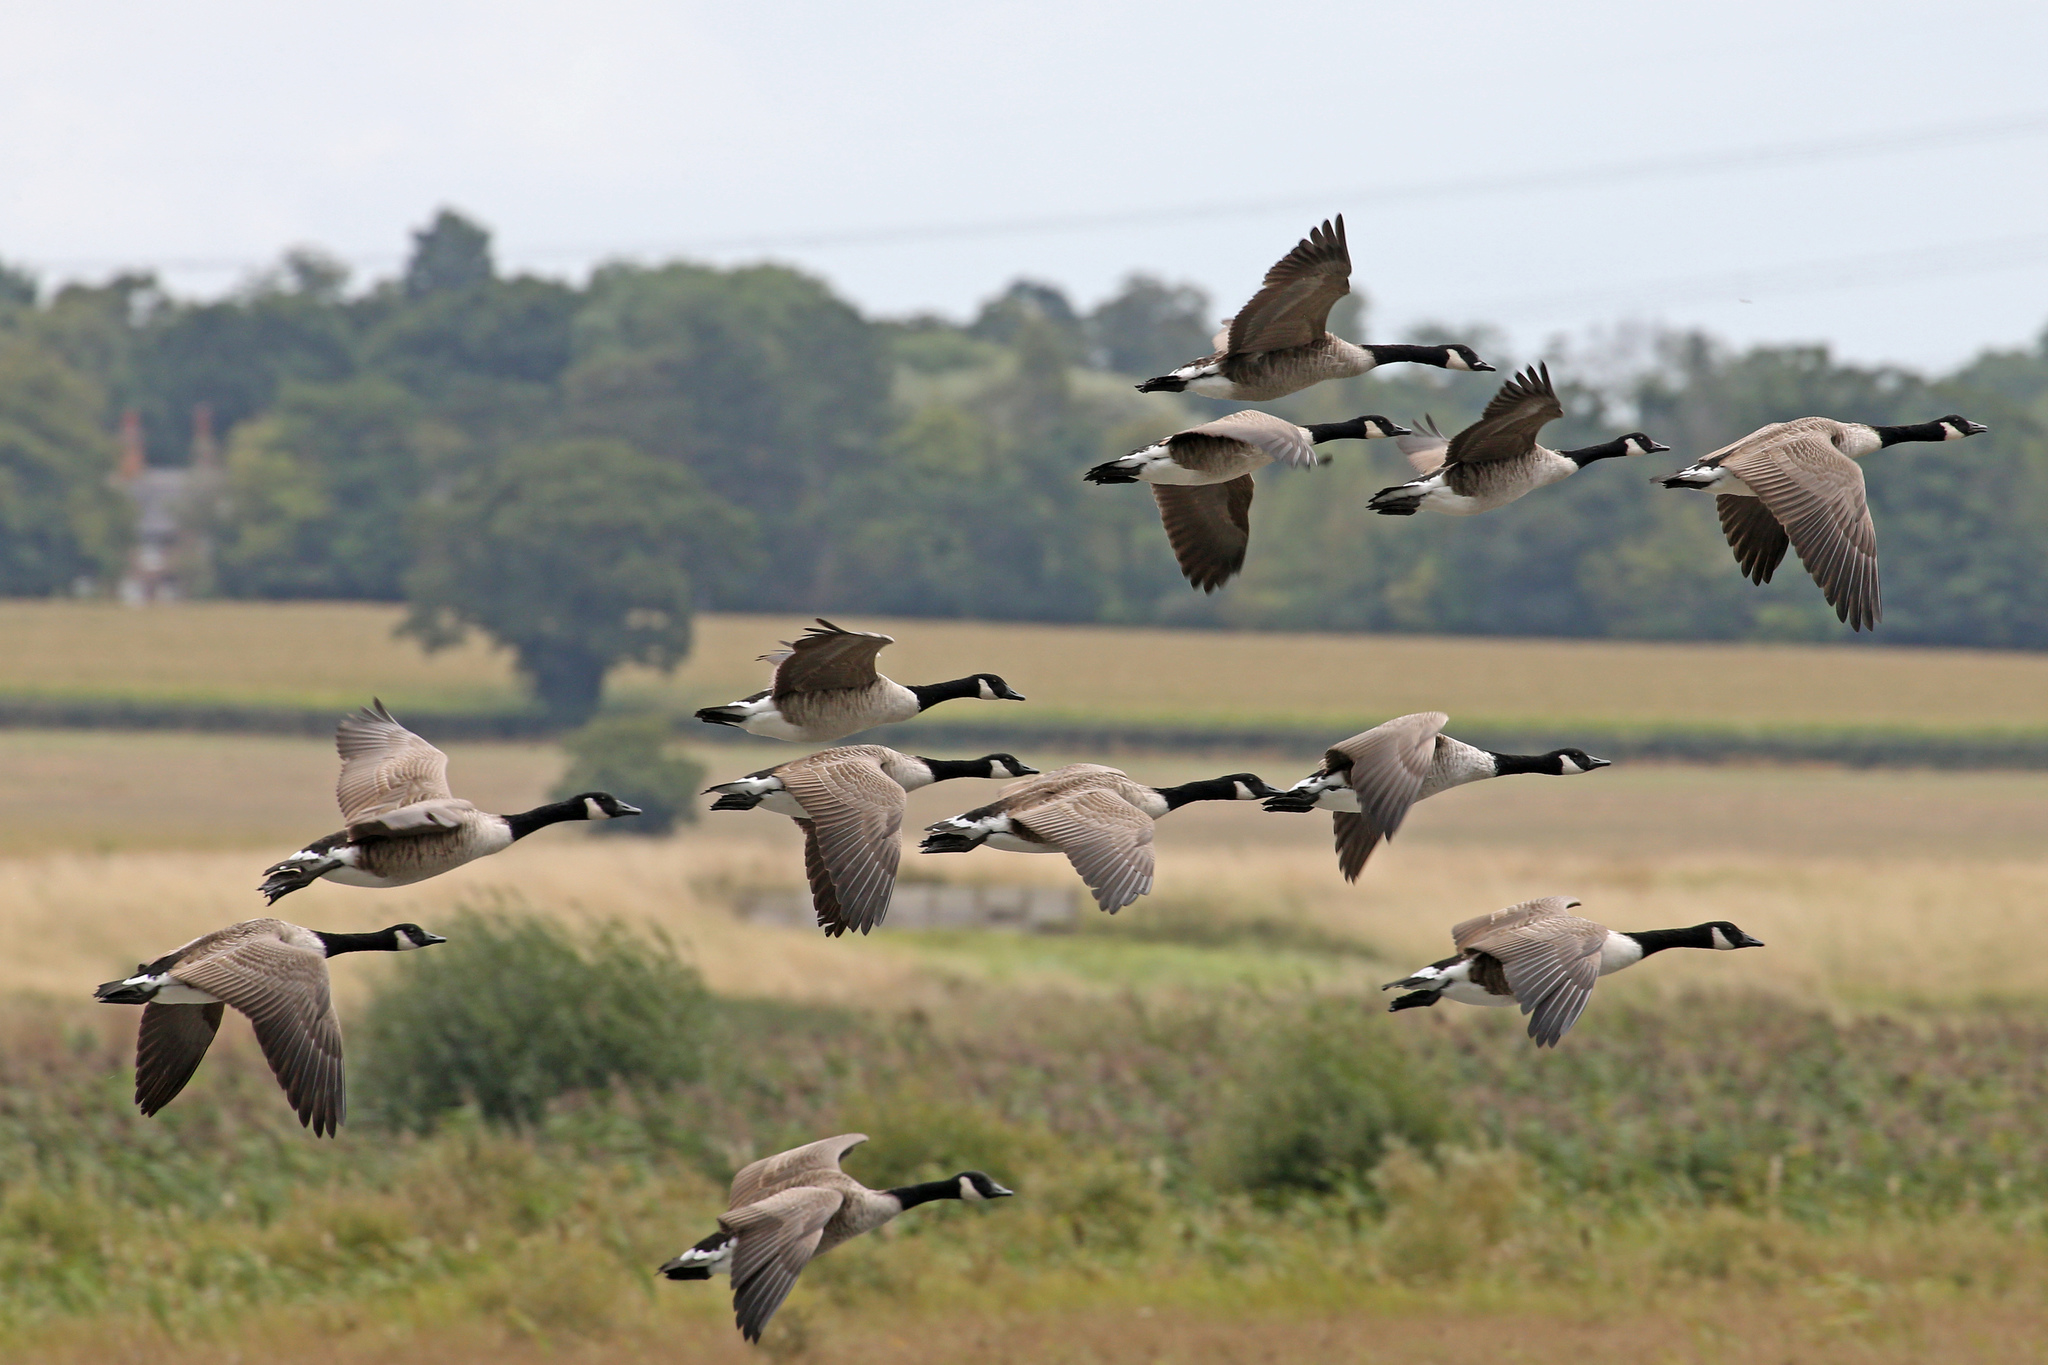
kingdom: Animalia
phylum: Chordata
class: Aves
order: Anseriformes
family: Anatidae
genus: Branta
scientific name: Branta canadensis
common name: Canada goose
